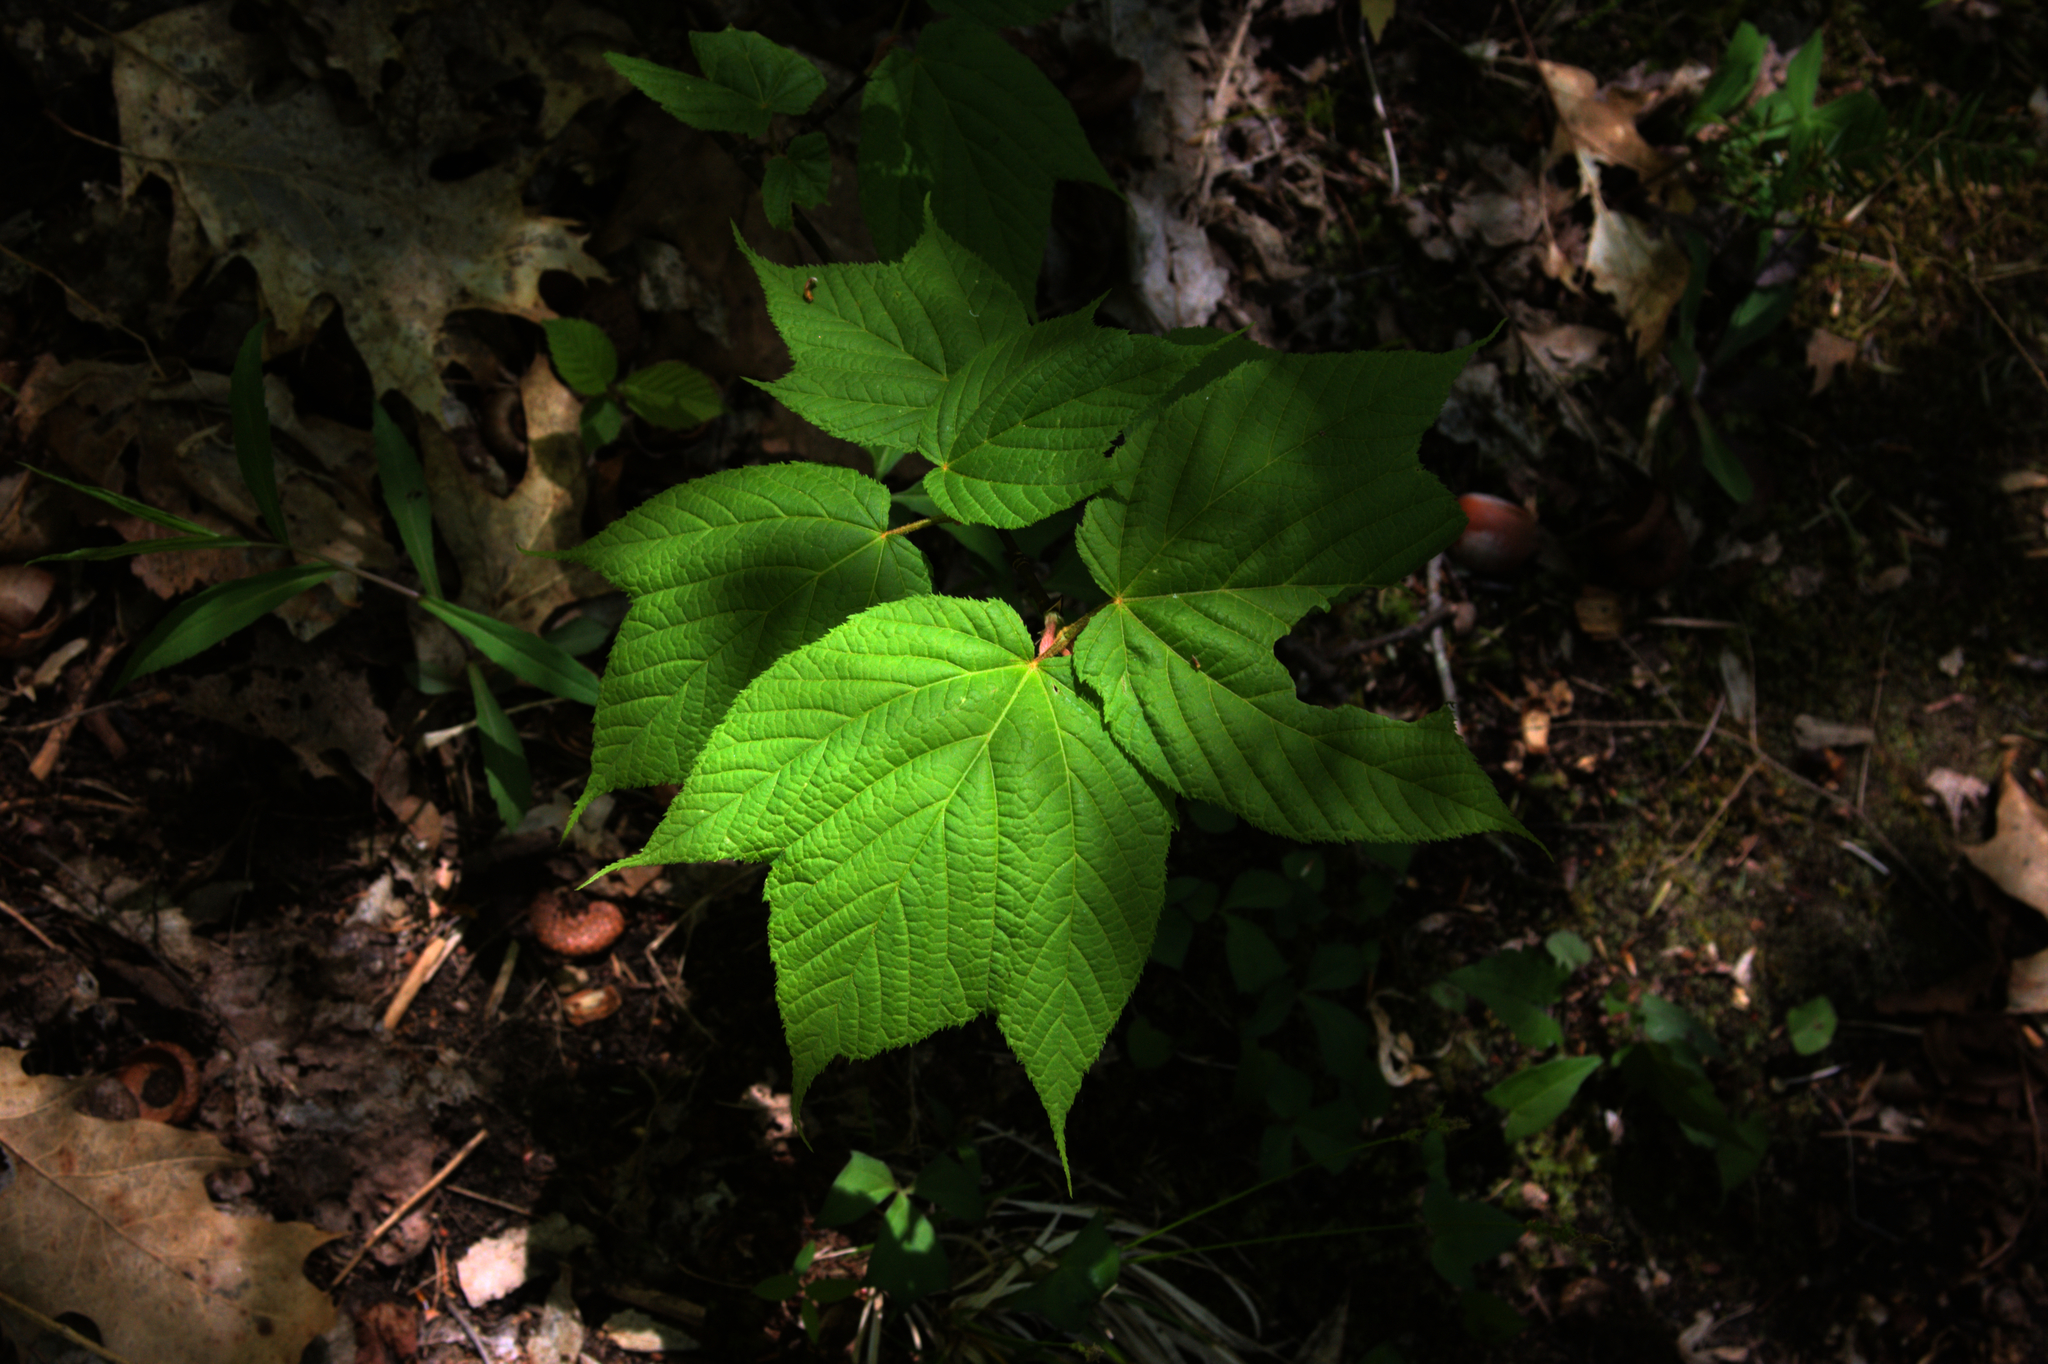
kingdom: Plantae
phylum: Tracheophyta
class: Magnoliopsida
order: Sapindales
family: Sapindaceae
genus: Acer
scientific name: Acer pensylvanicum
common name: Moosewood
